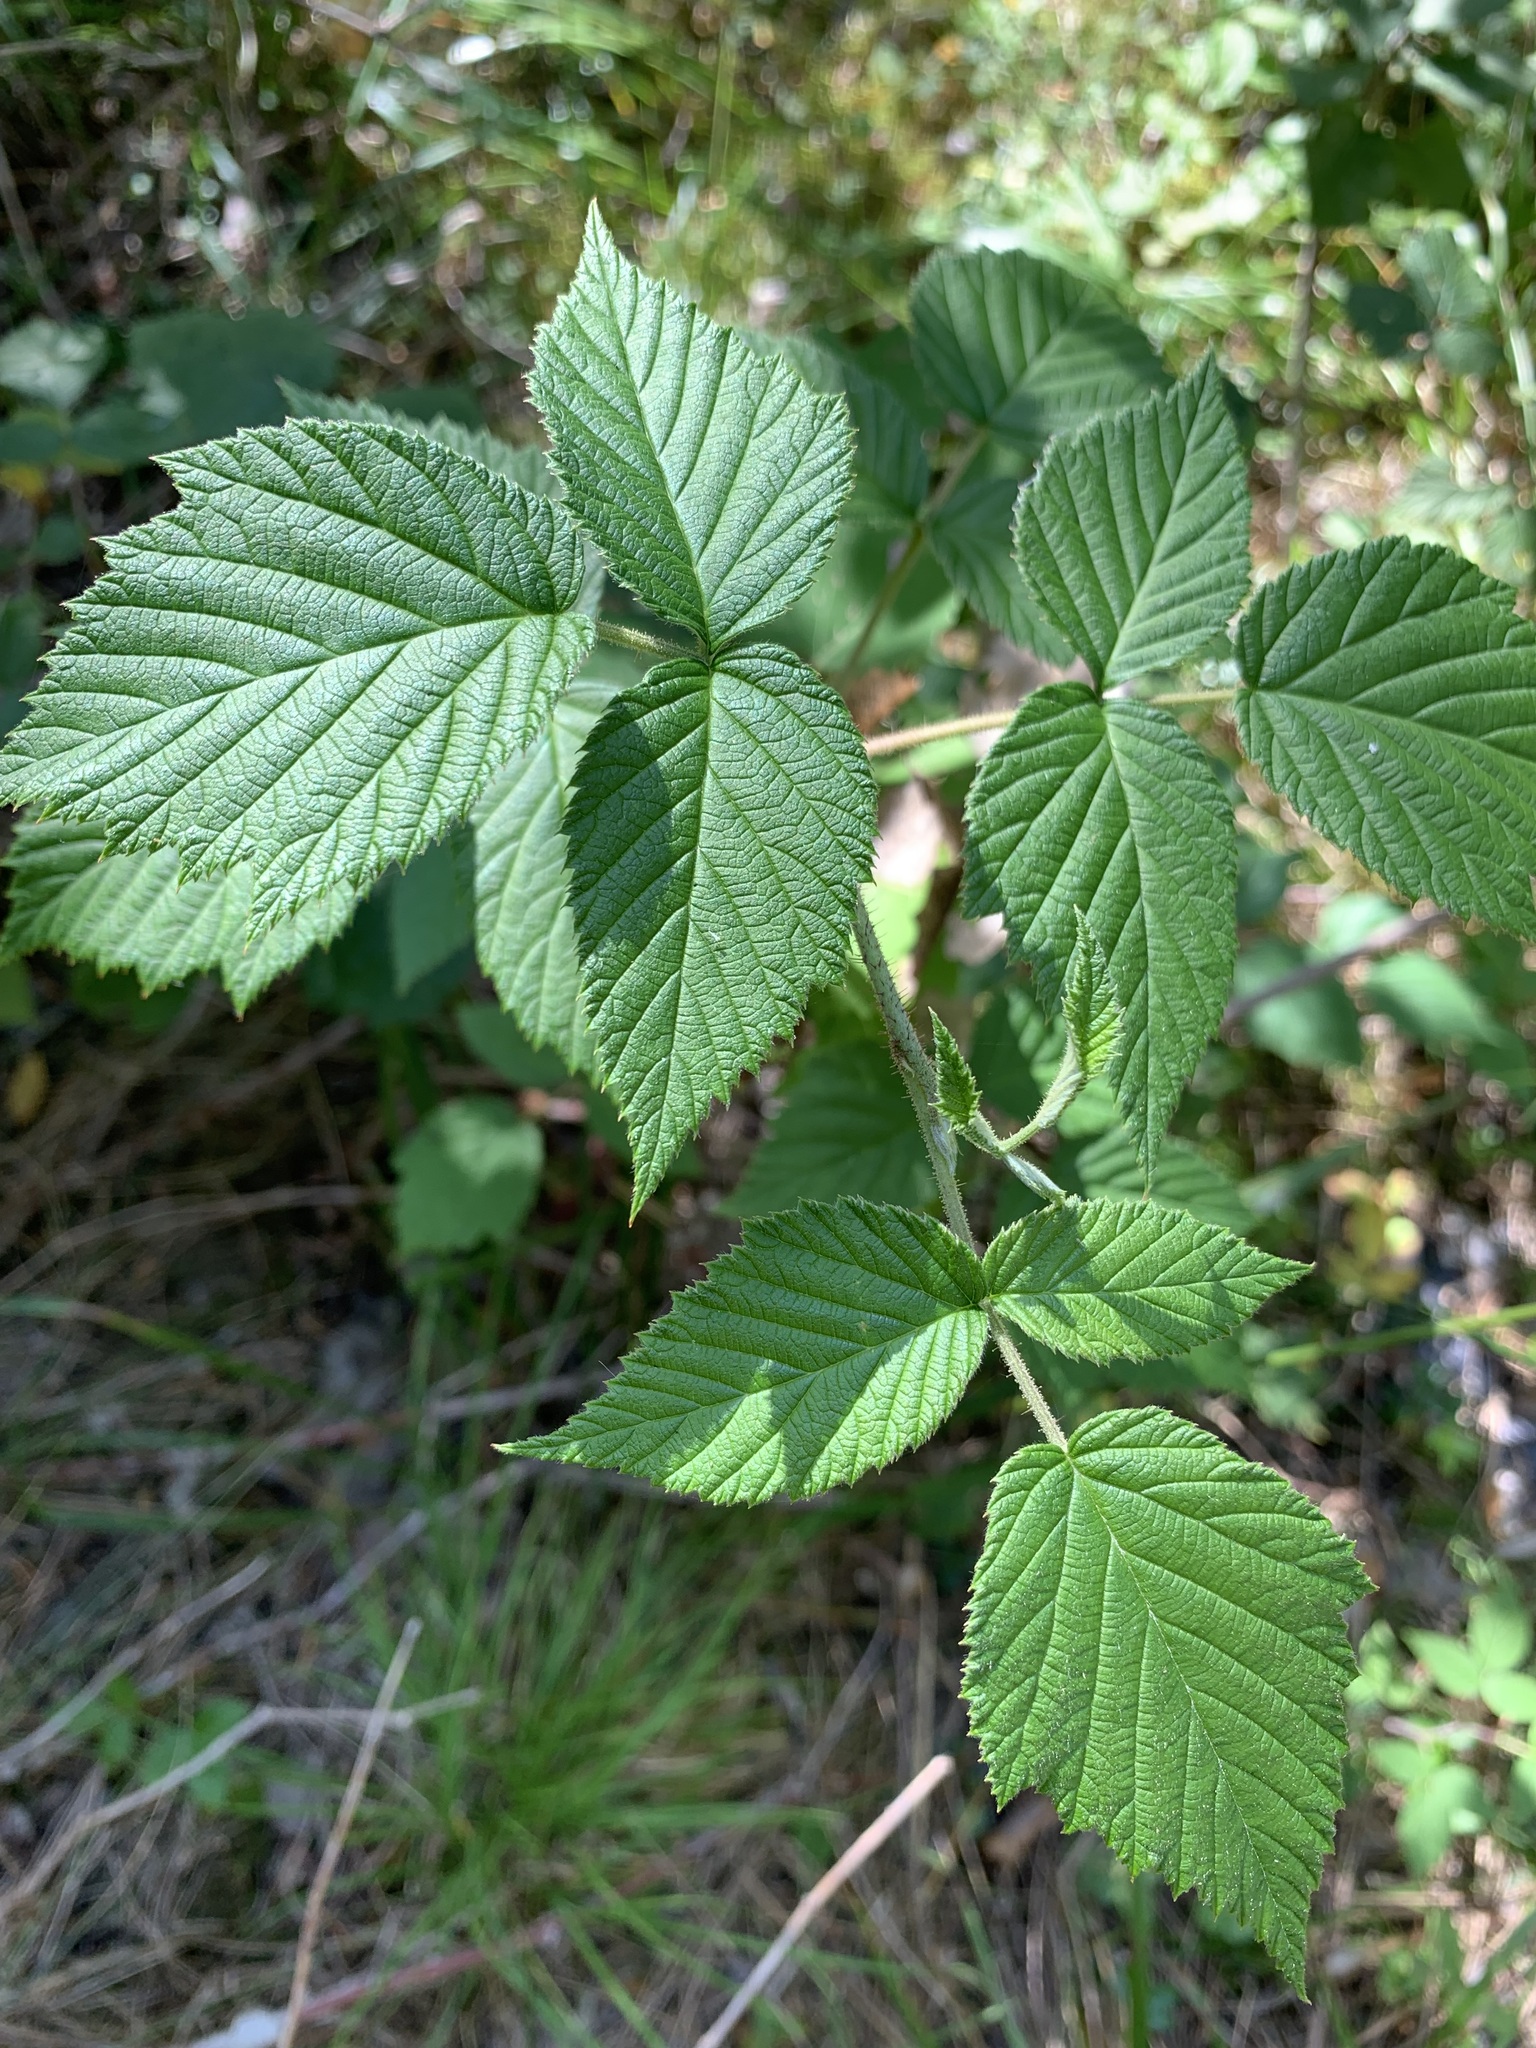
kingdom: Plantae
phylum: Tracheophyta
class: Magnoliopsida
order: Rosales
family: Rosaceae
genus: Rubus
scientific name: Rubus sachalinensis
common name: Red raspberry
